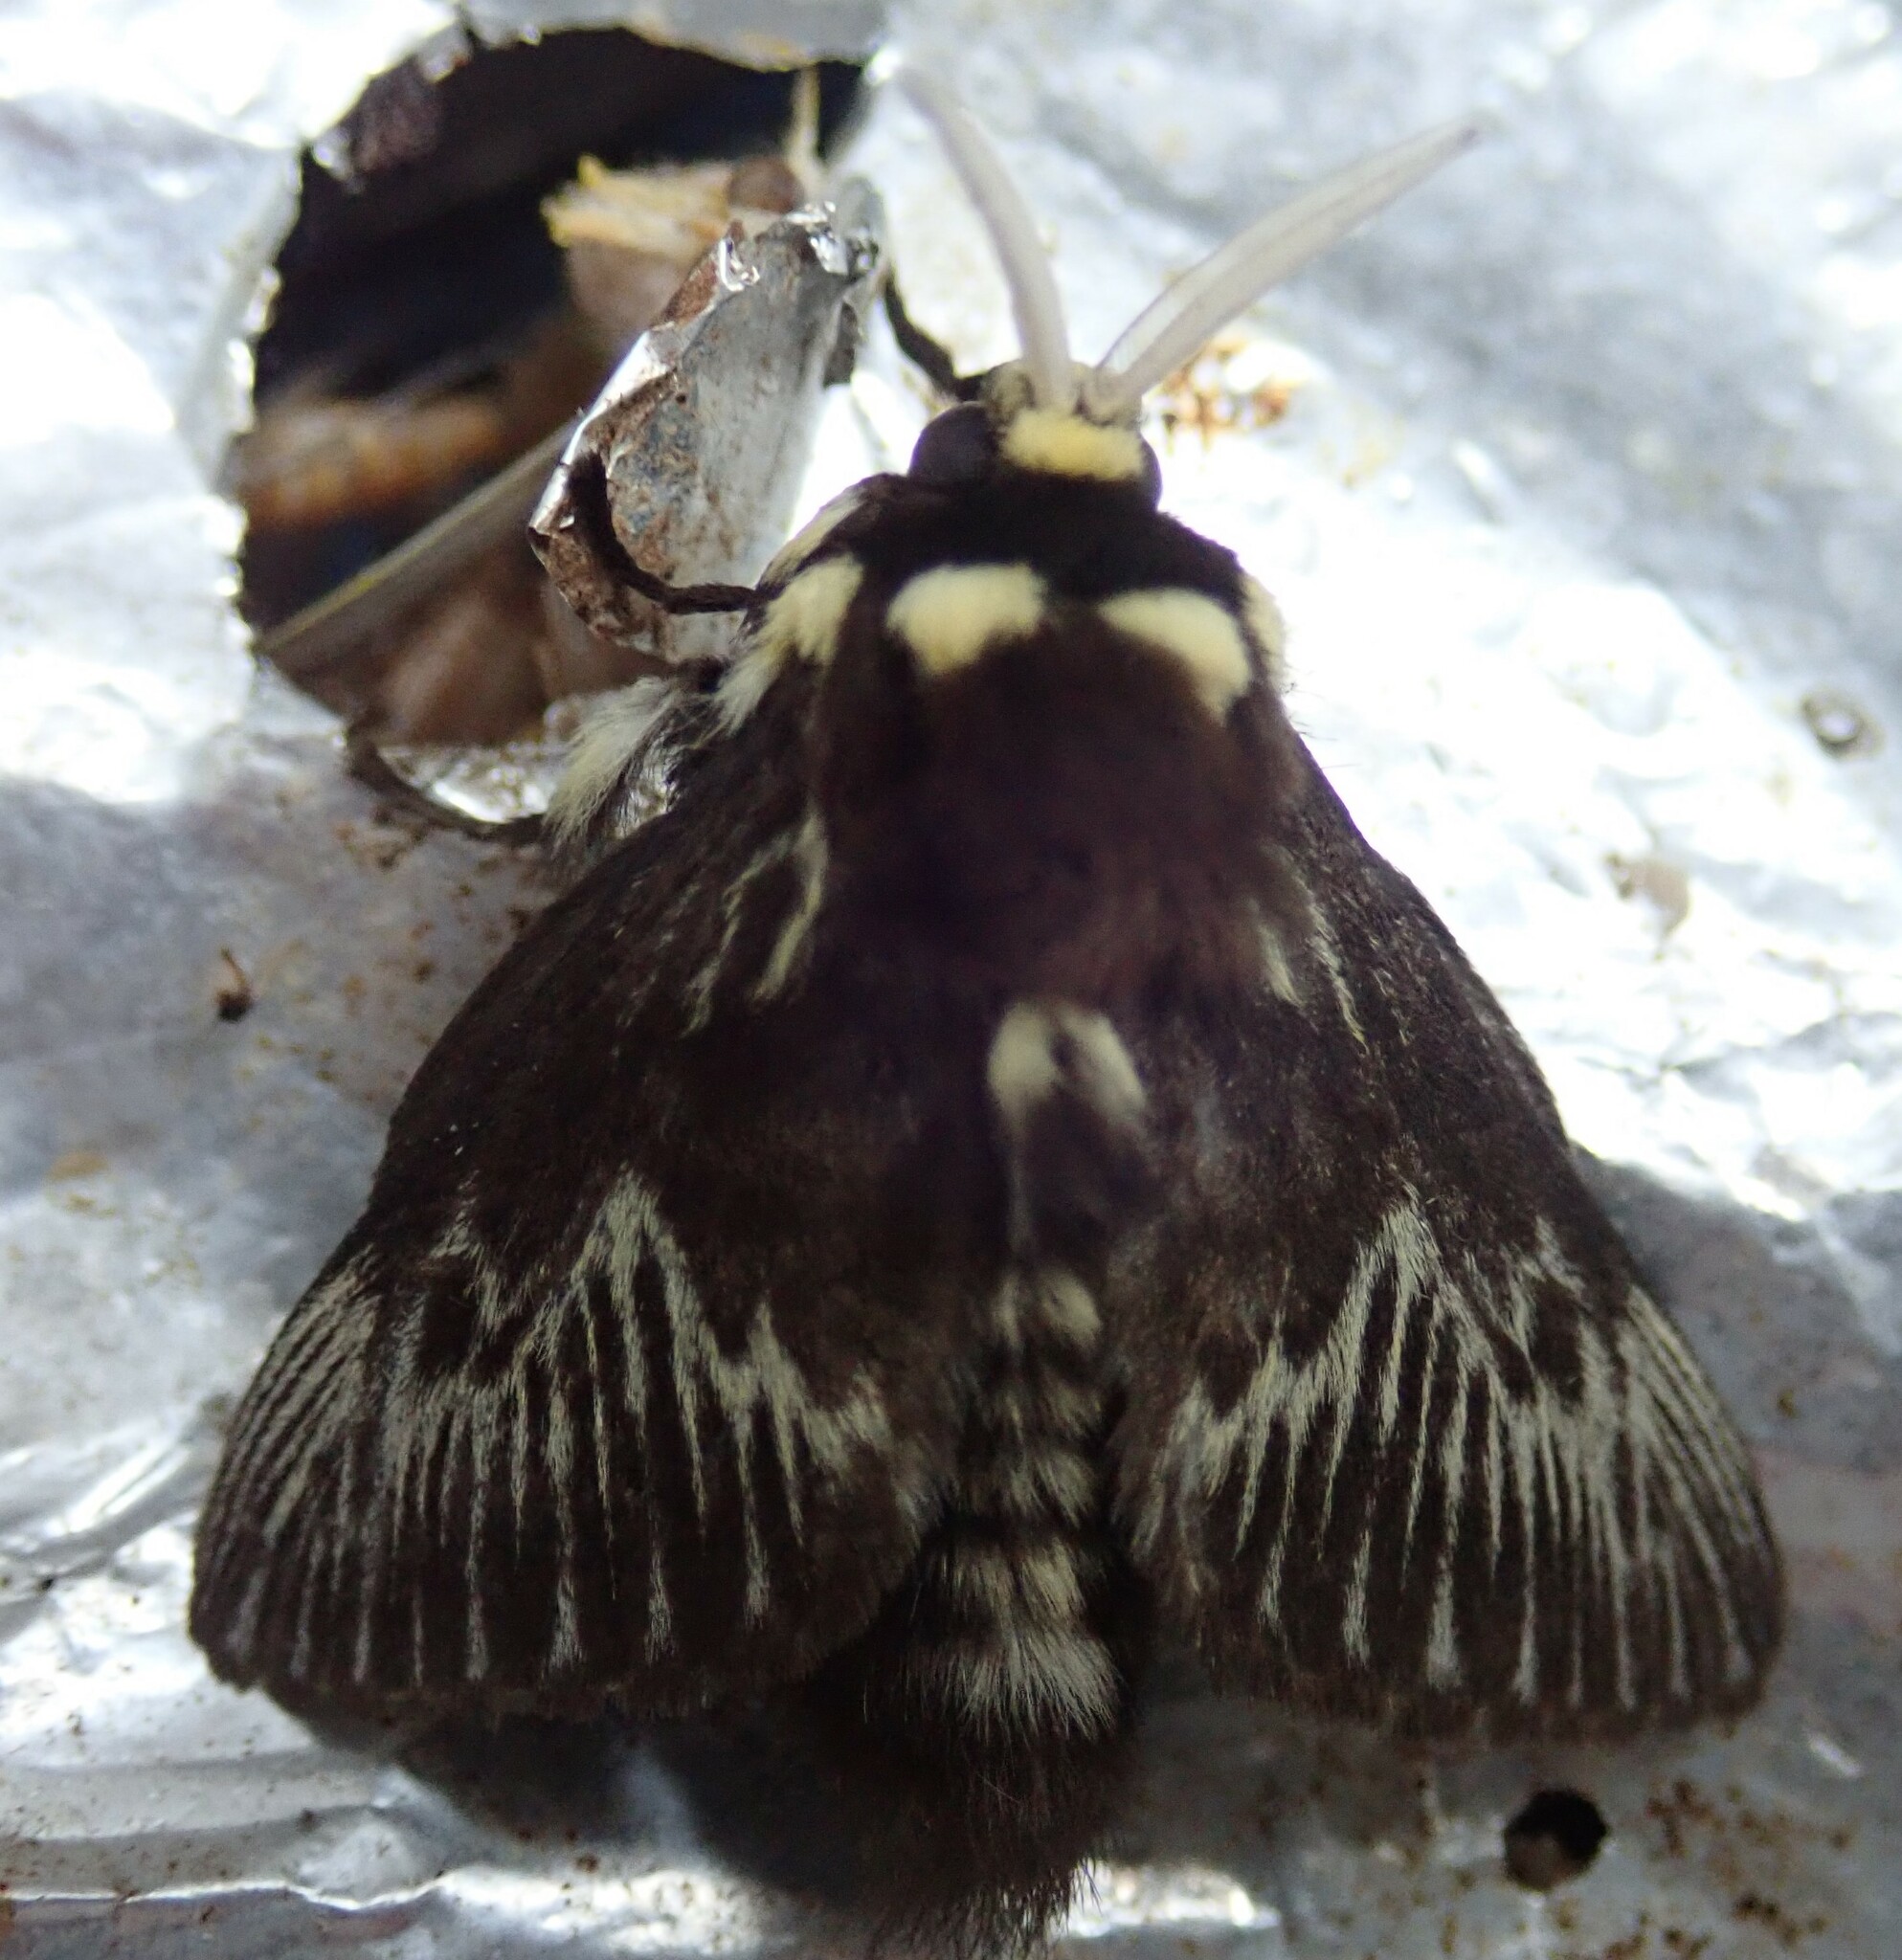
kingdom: Animalia
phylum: Arthropoda
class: Insecta
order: Lepidoptera
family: Megalopygidae
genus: Megalopyge
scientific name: Megalopyge albicollis
